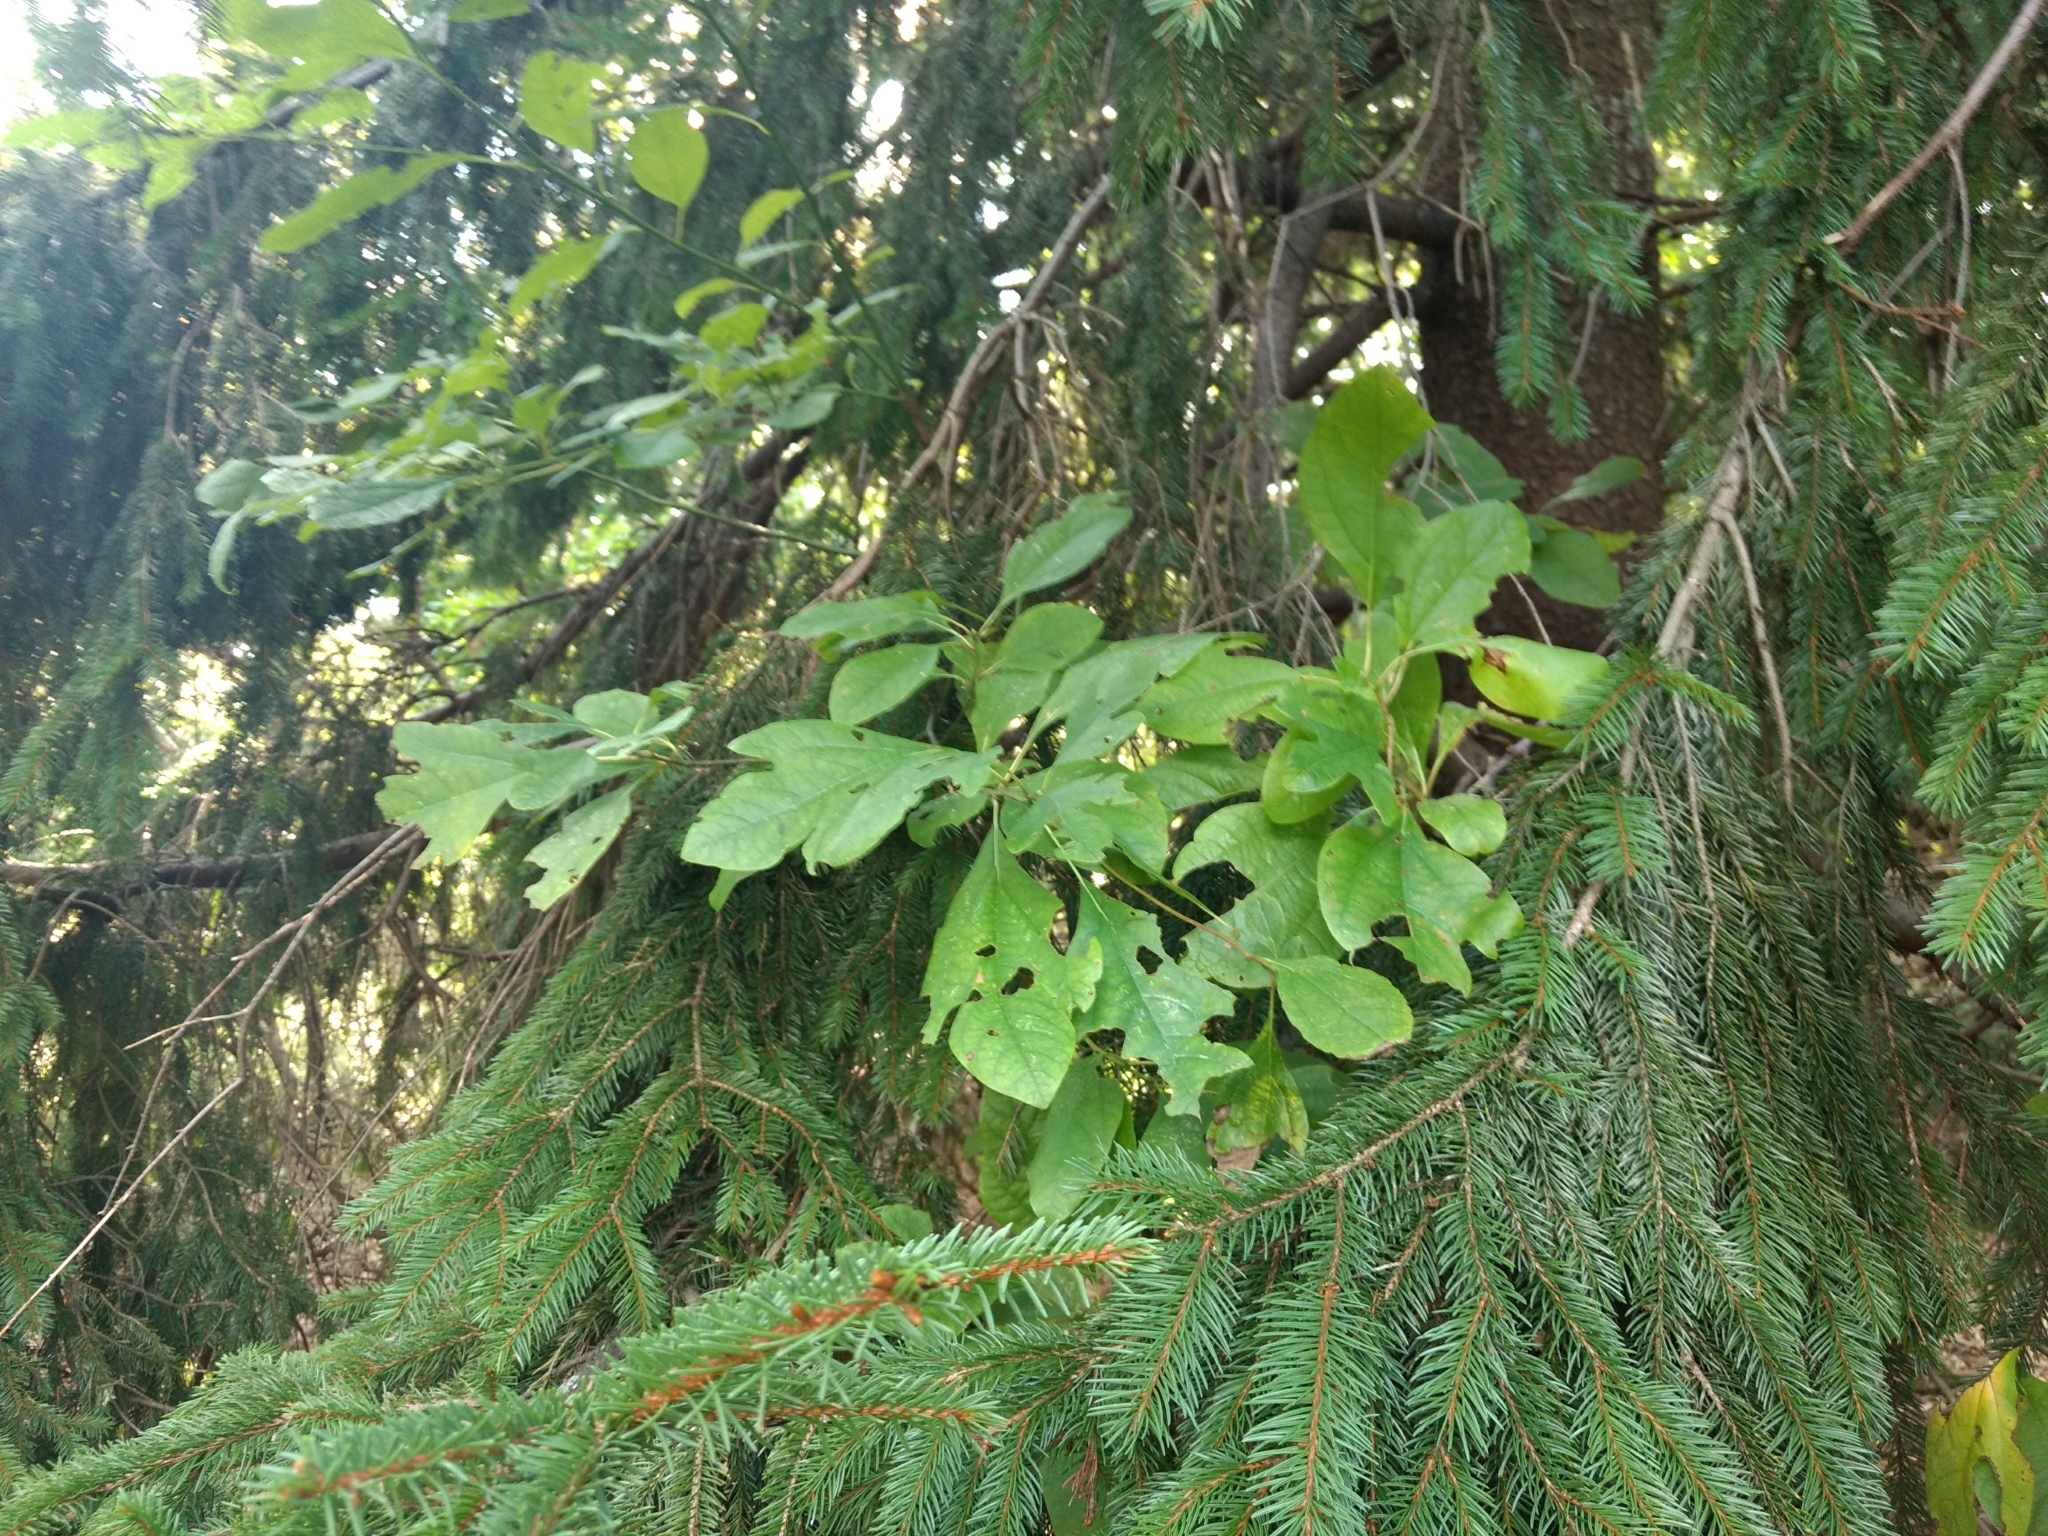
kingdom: Plantae
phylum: Tracheophyta
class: Magnoliopsida
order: Laurales
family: Lauraceae
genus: Sassafras
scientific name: Sassafras albidum
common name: Sassafras
